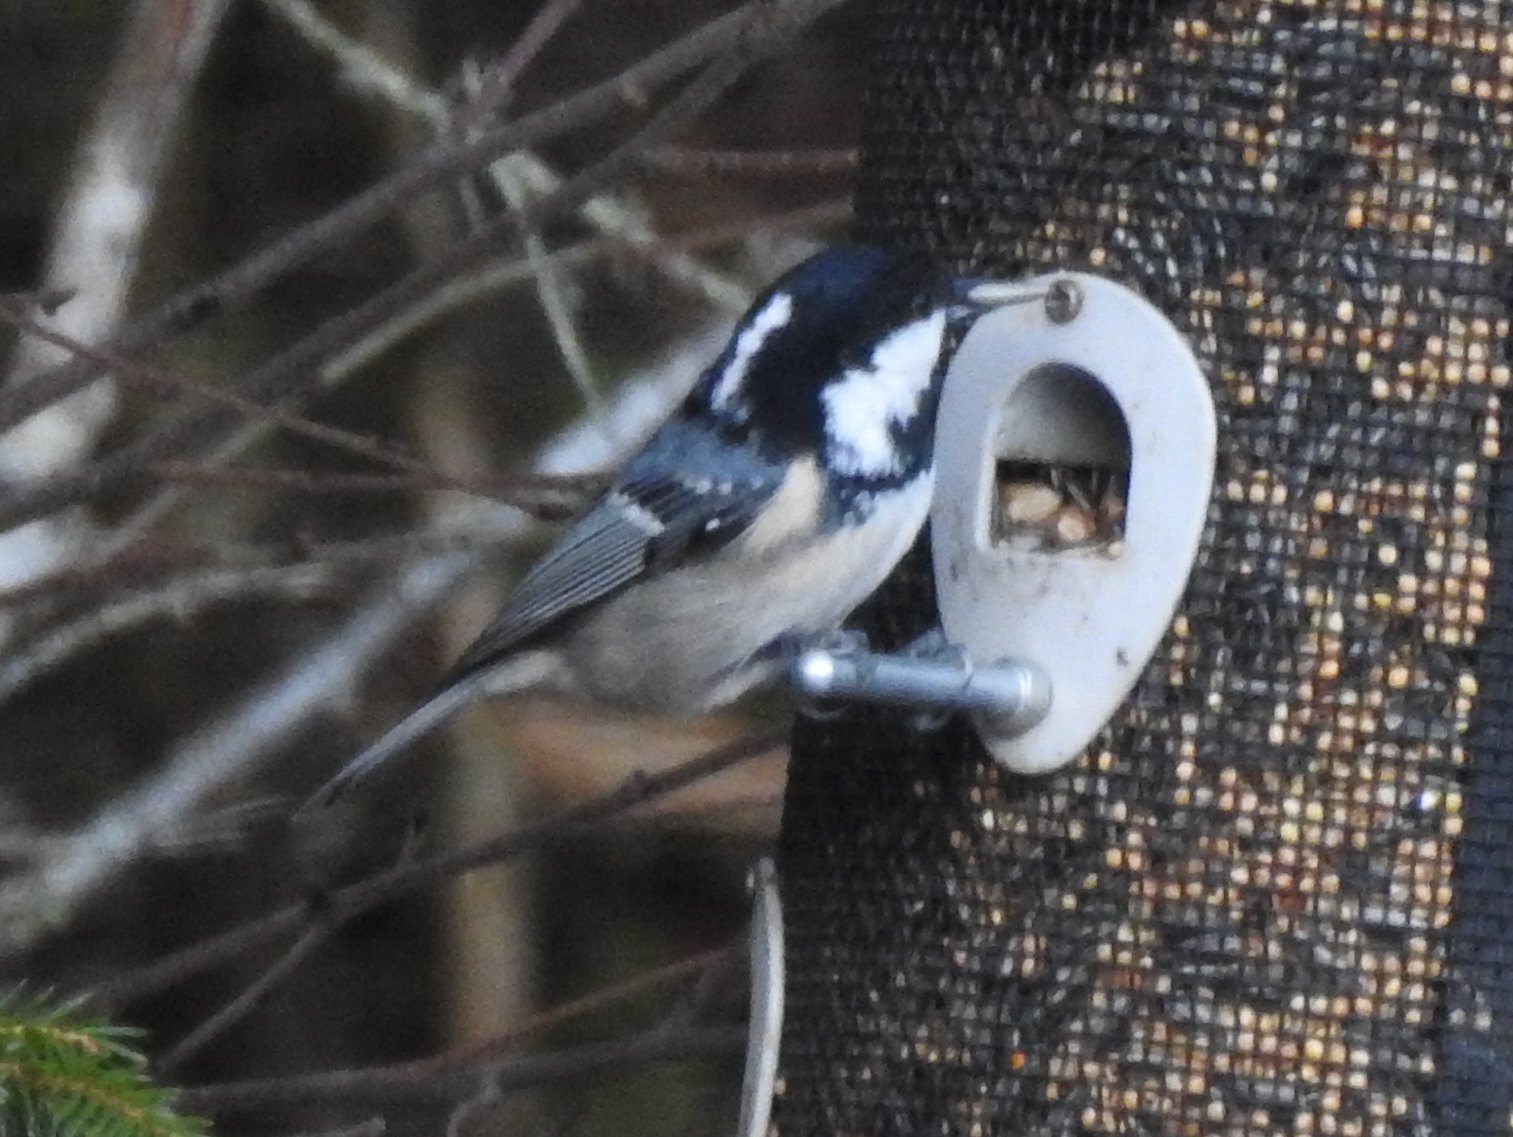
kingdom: Animalia
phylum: Chordata
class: Aves
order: Passeriformes
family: Paridae
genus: Periparus
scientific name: Periparus ater
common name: Coal tit
